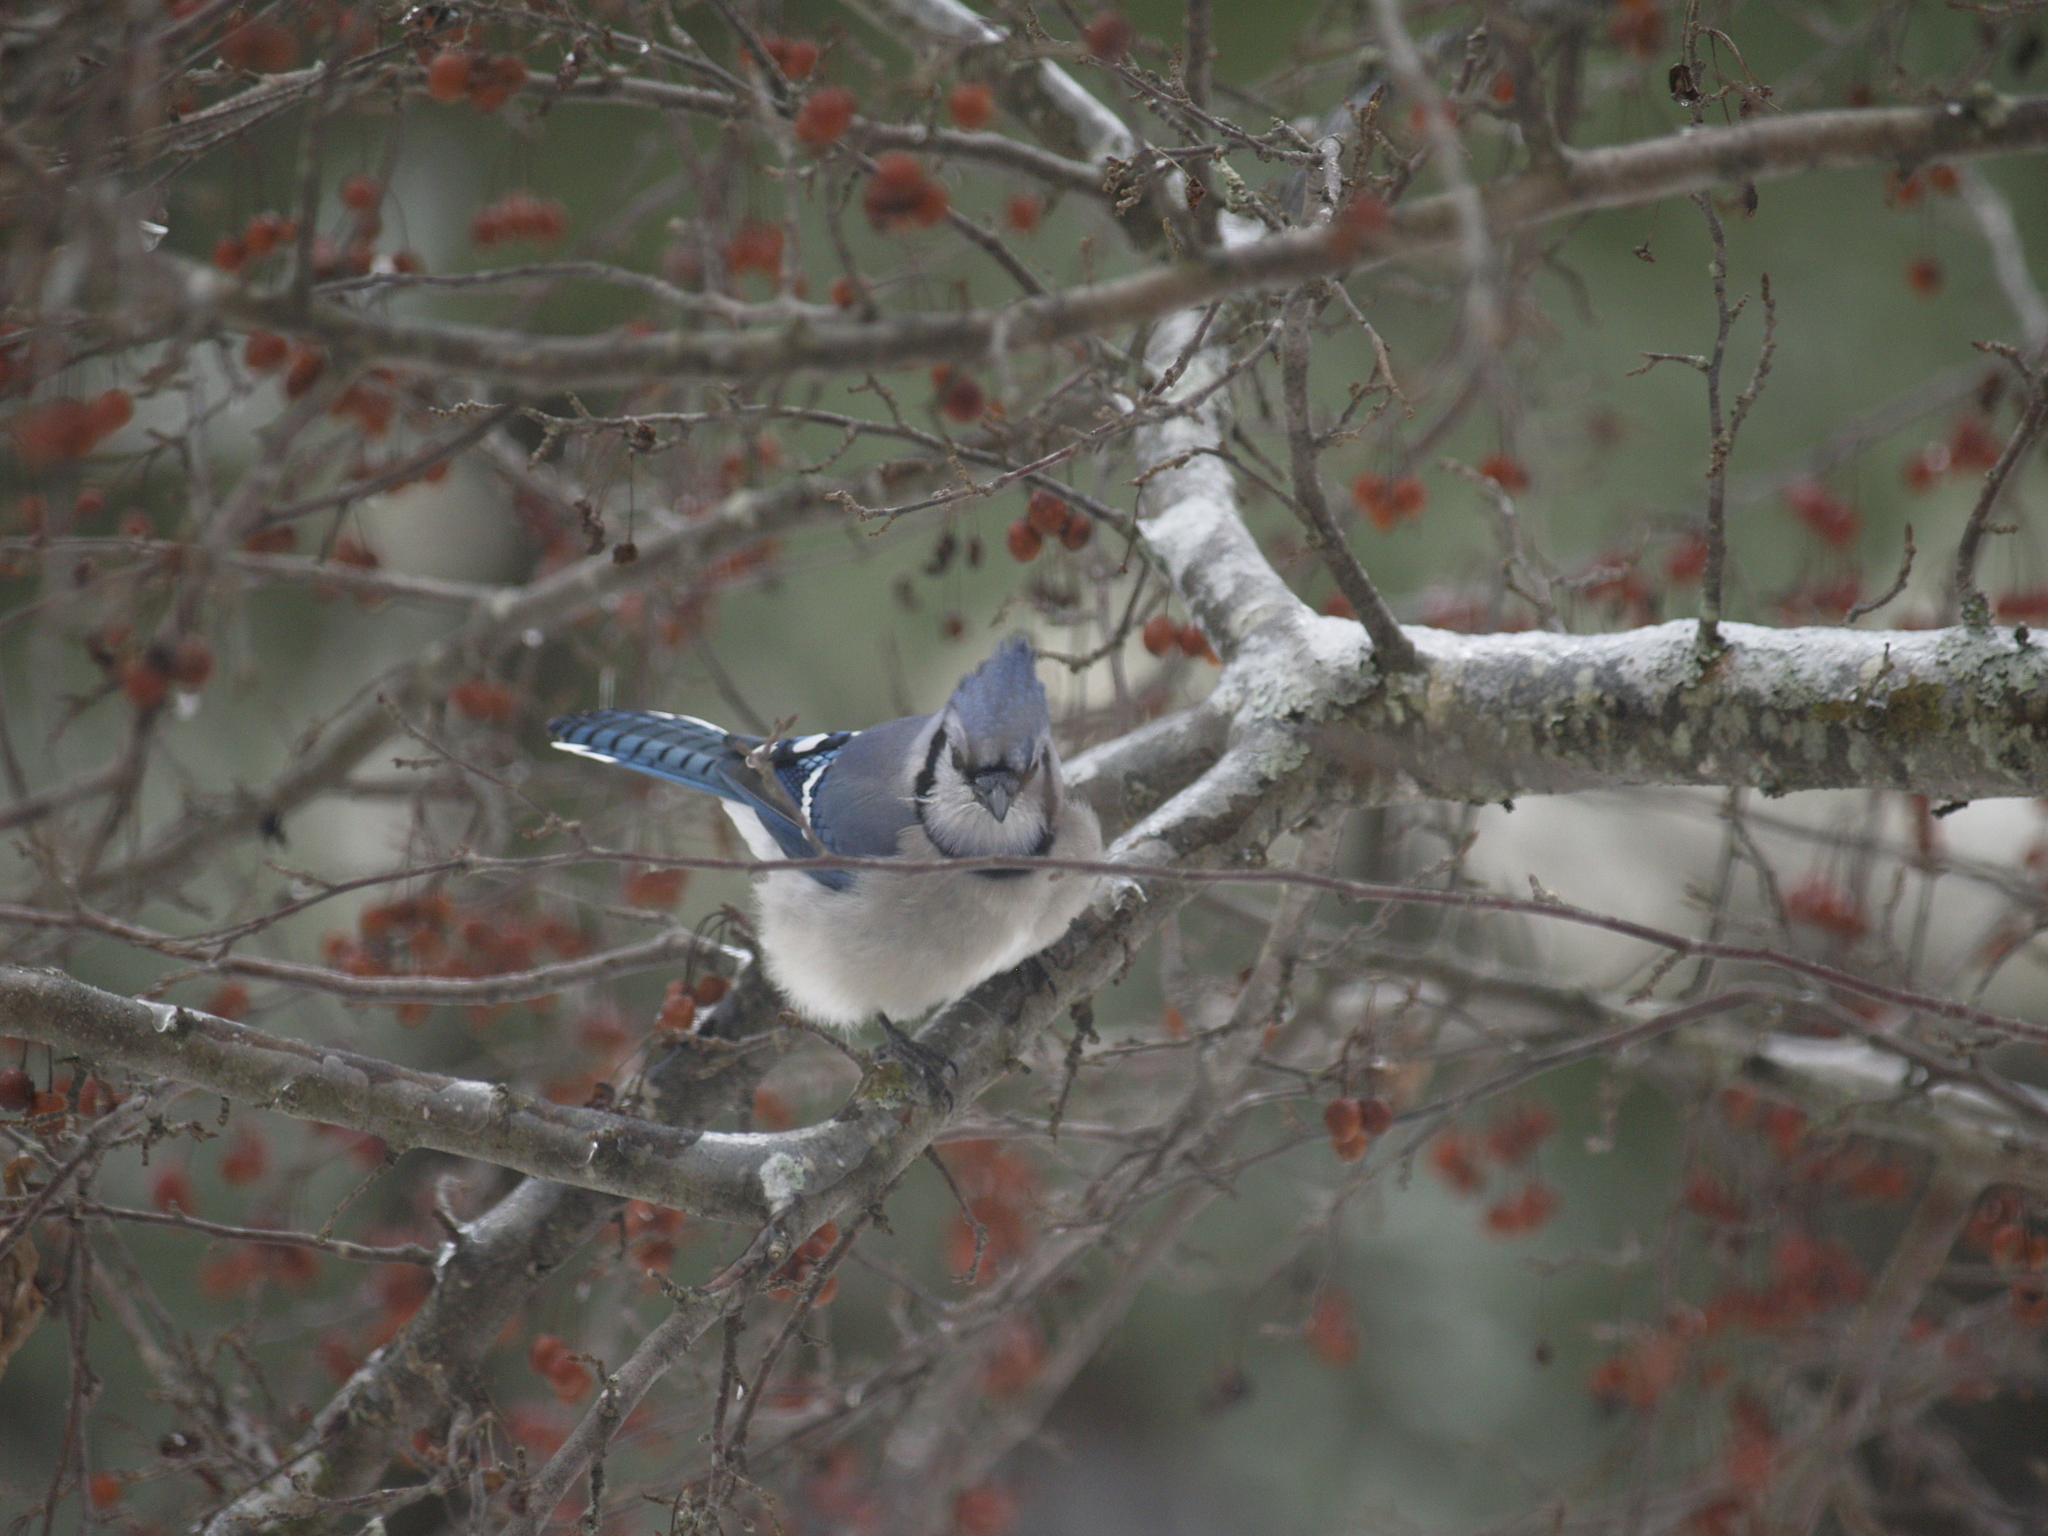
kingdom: Animalia
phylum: Chordata
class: Aves
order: Passeriformes
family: Corvidae
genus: Cyanocitta
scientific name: Cyanocitta cristata
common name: Blue jay
